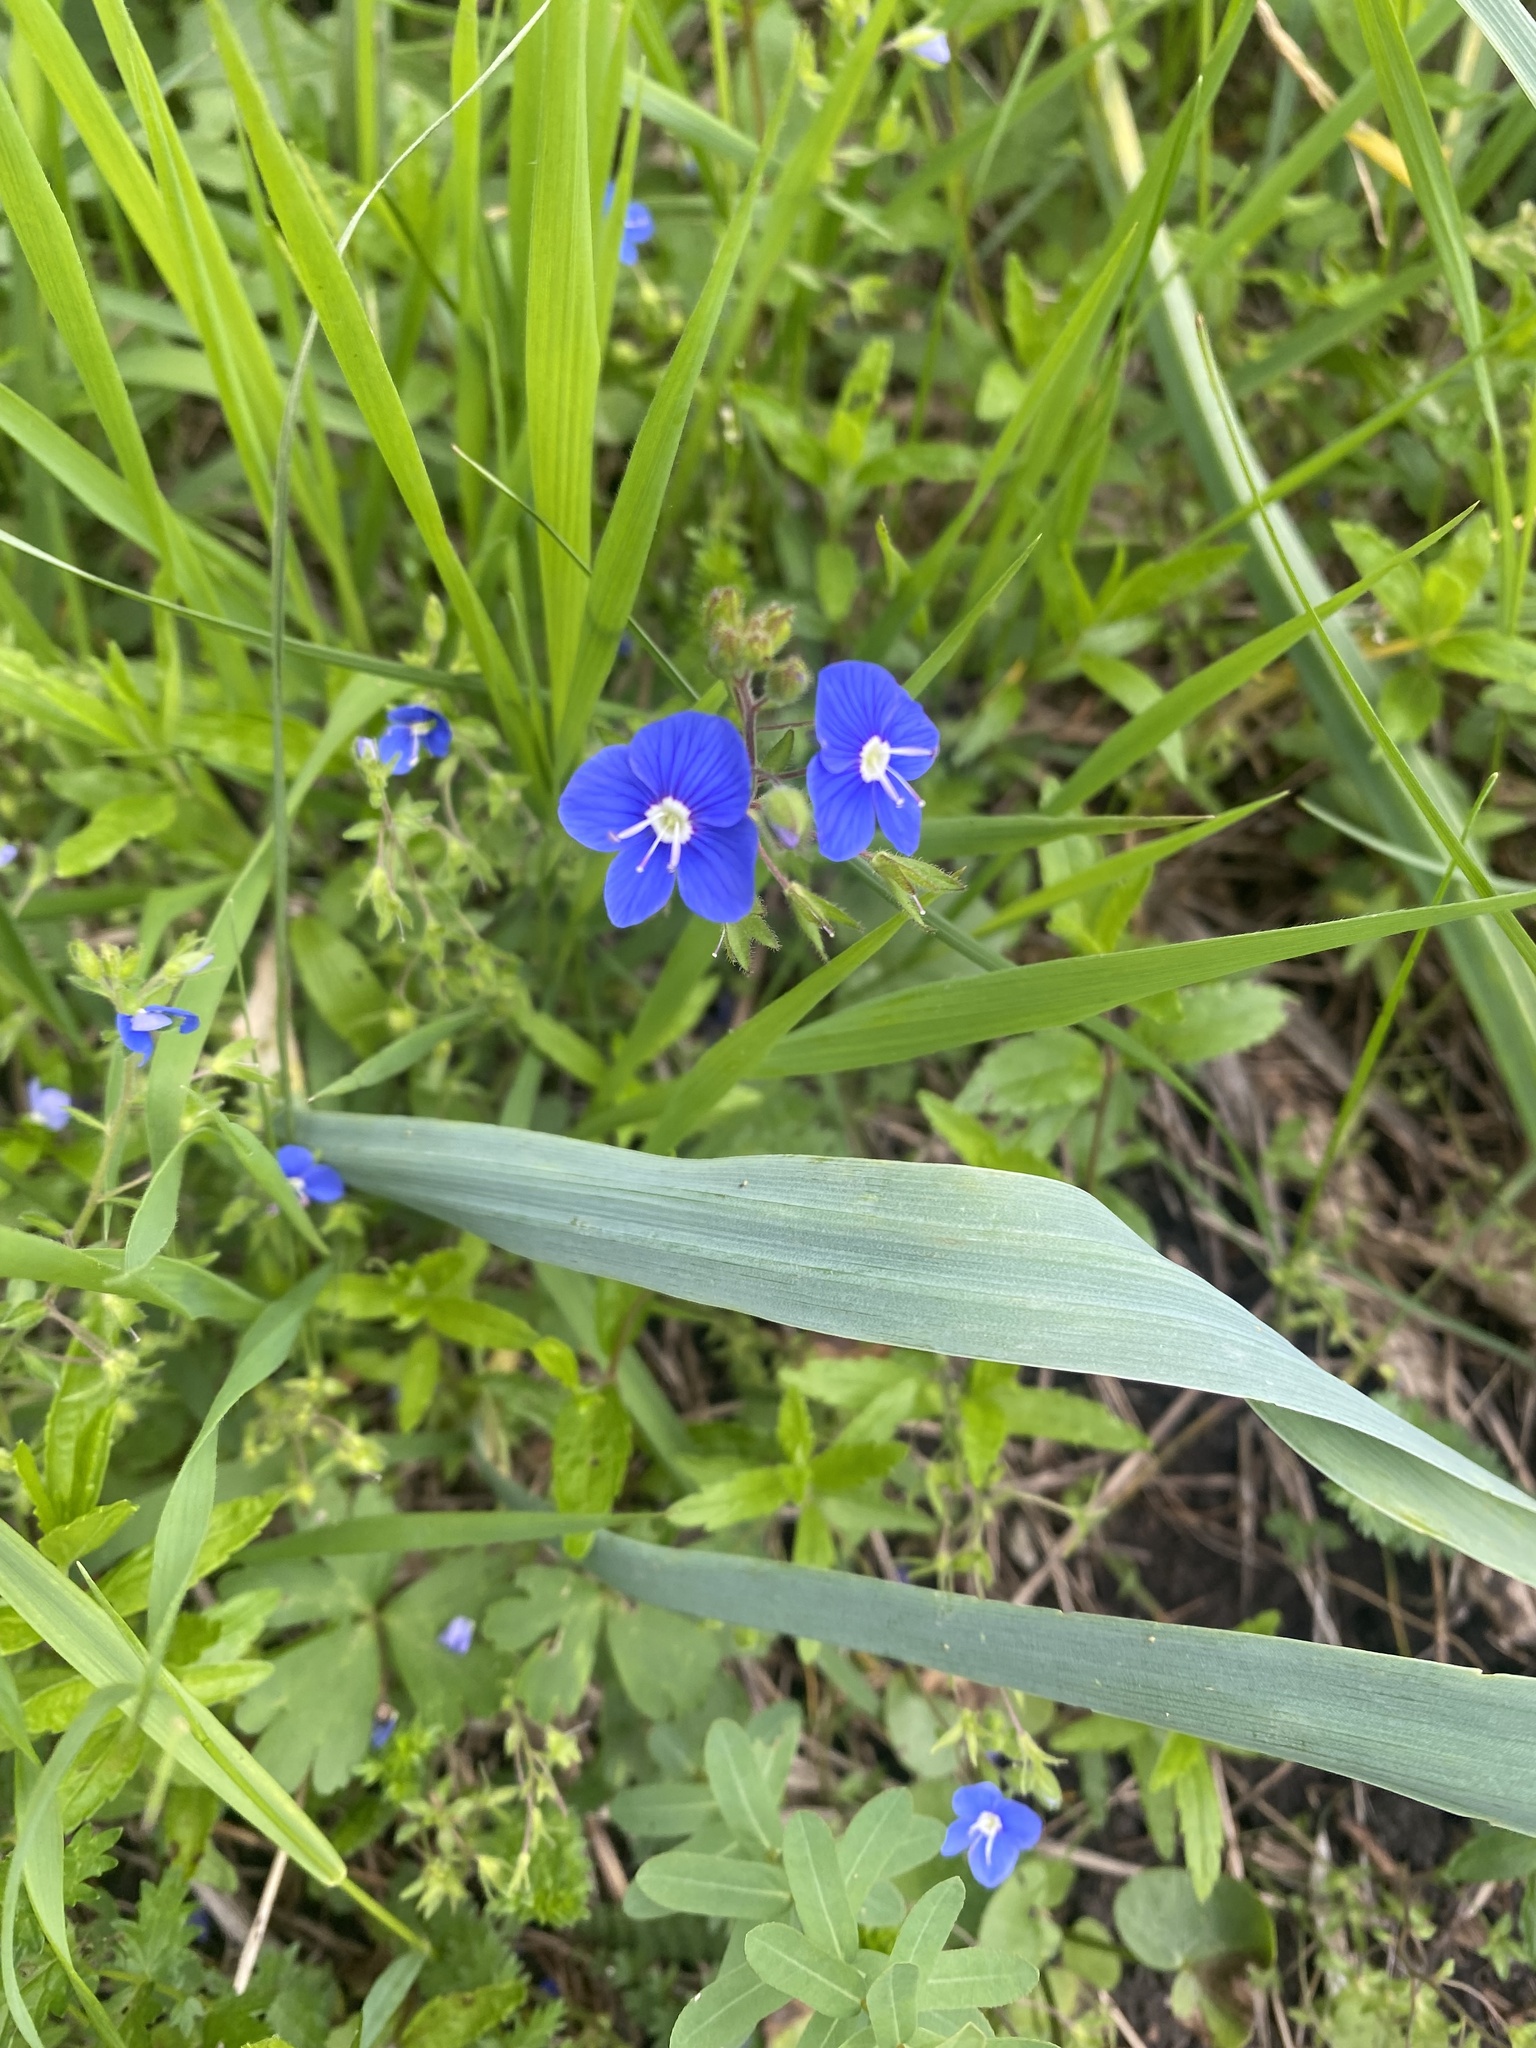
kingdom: Plantae
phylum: Tracheophyta
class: Magnoliopsida
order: Lamiales
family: Plantaginaceae
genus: Veronica
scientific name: Veronica
